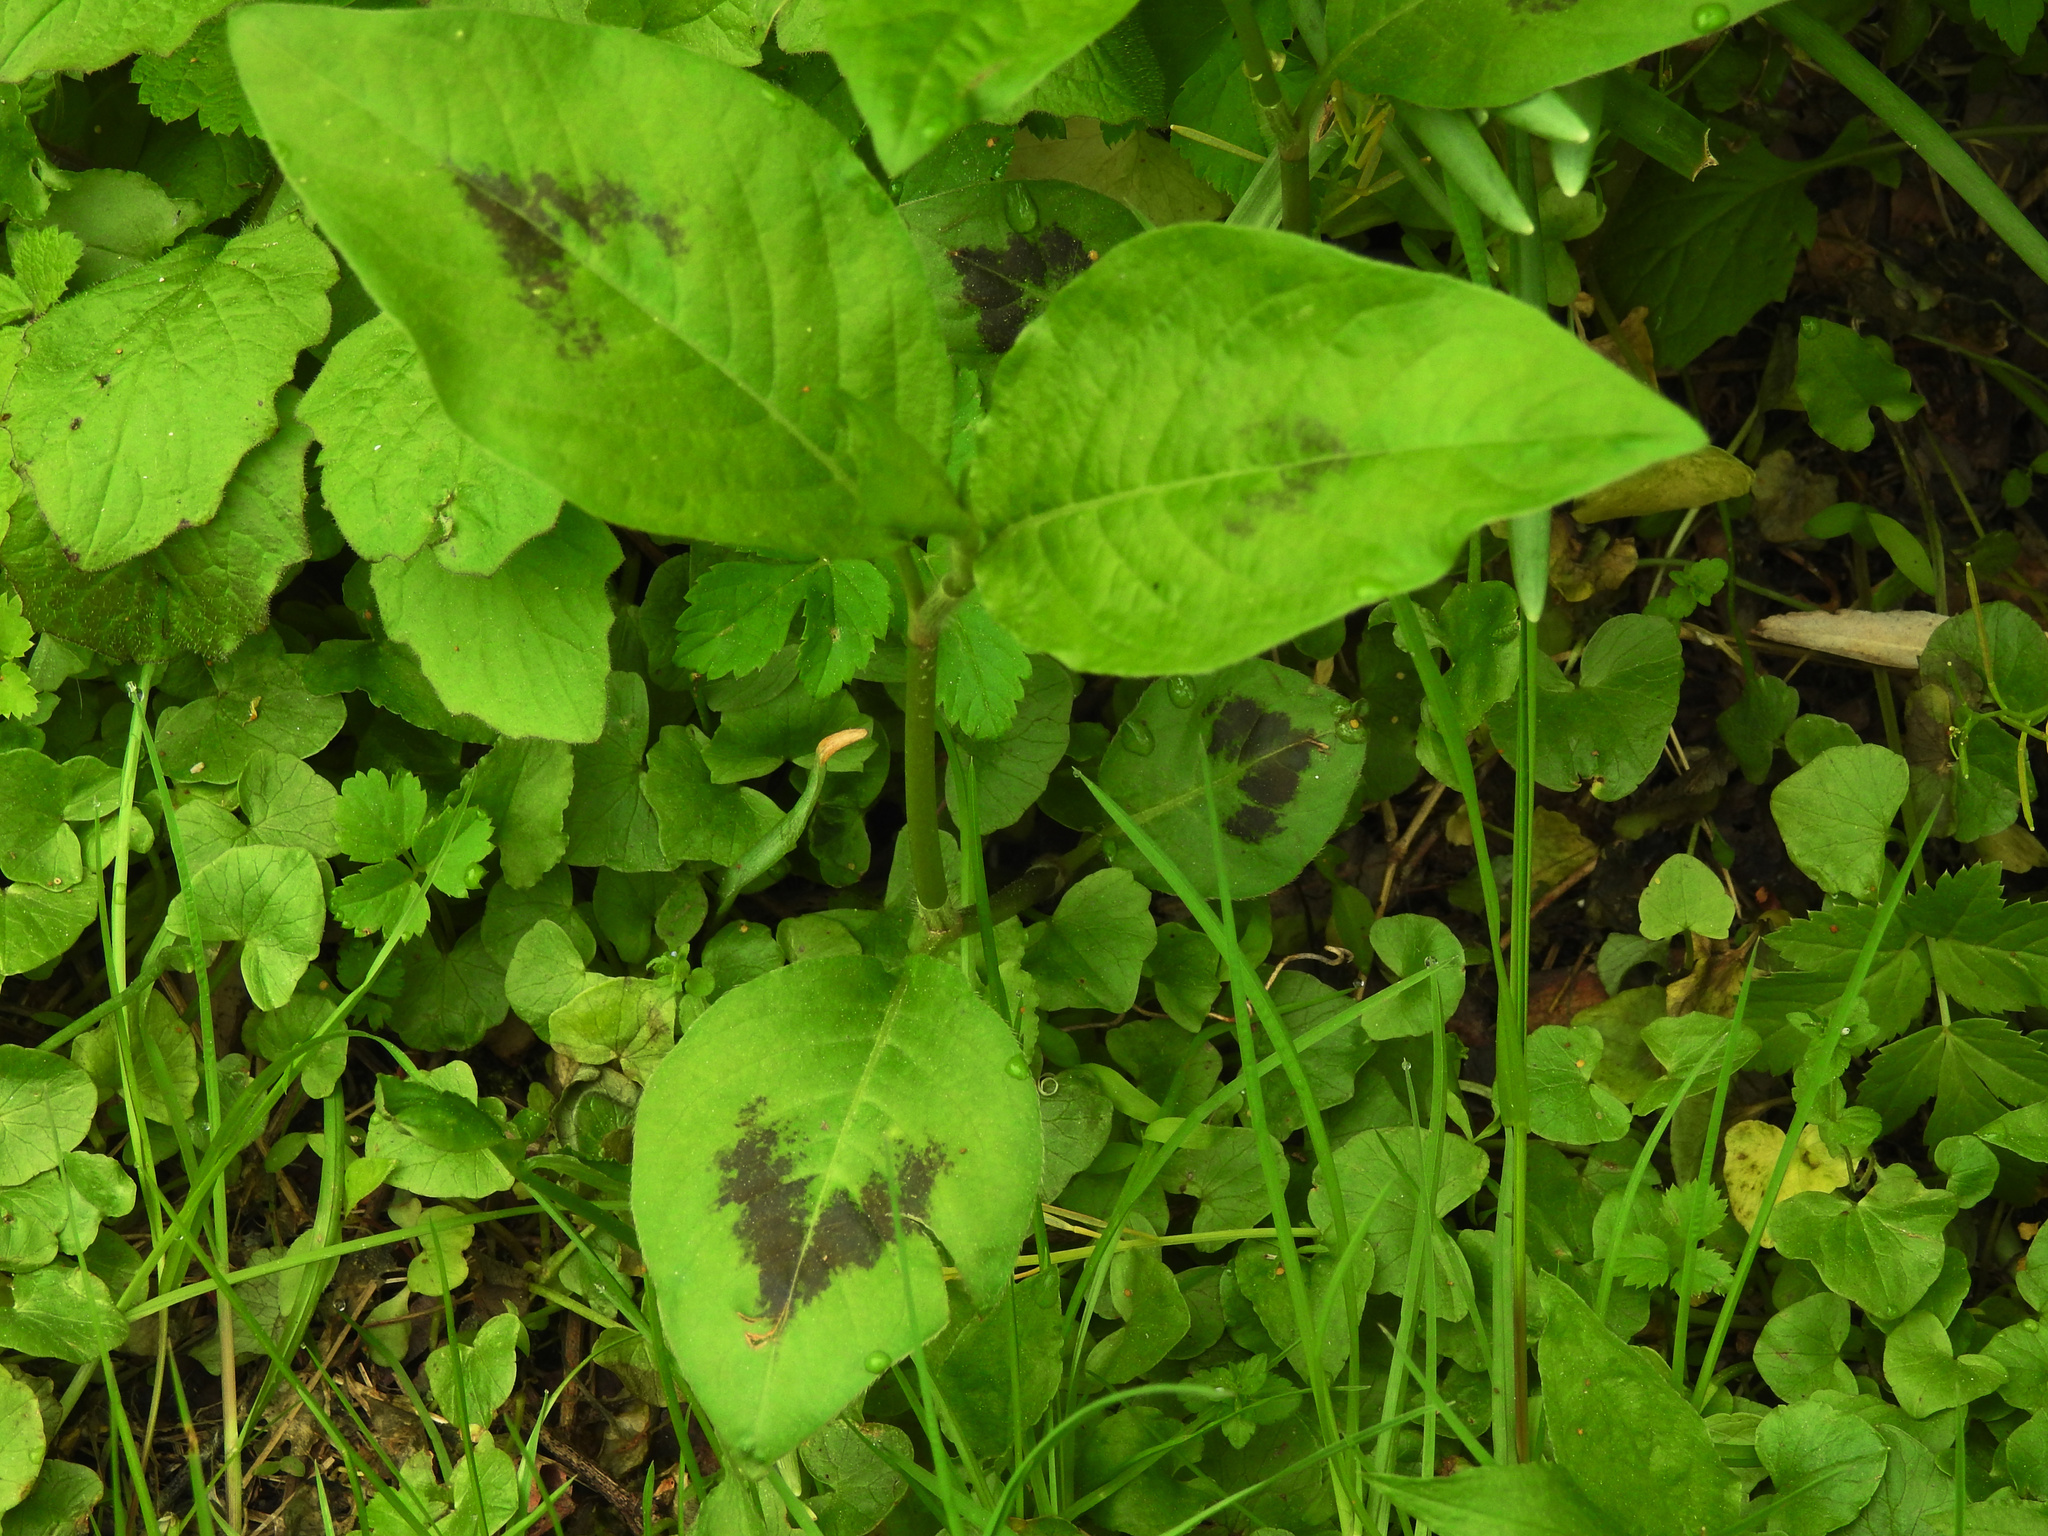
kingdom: Plantae
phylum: Tracheophyta
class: Magnoliopsida
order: Caryophyllales
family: Polygonaceae
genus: Persicaria
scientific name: Persicaria virginiana
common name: Jumpseed
